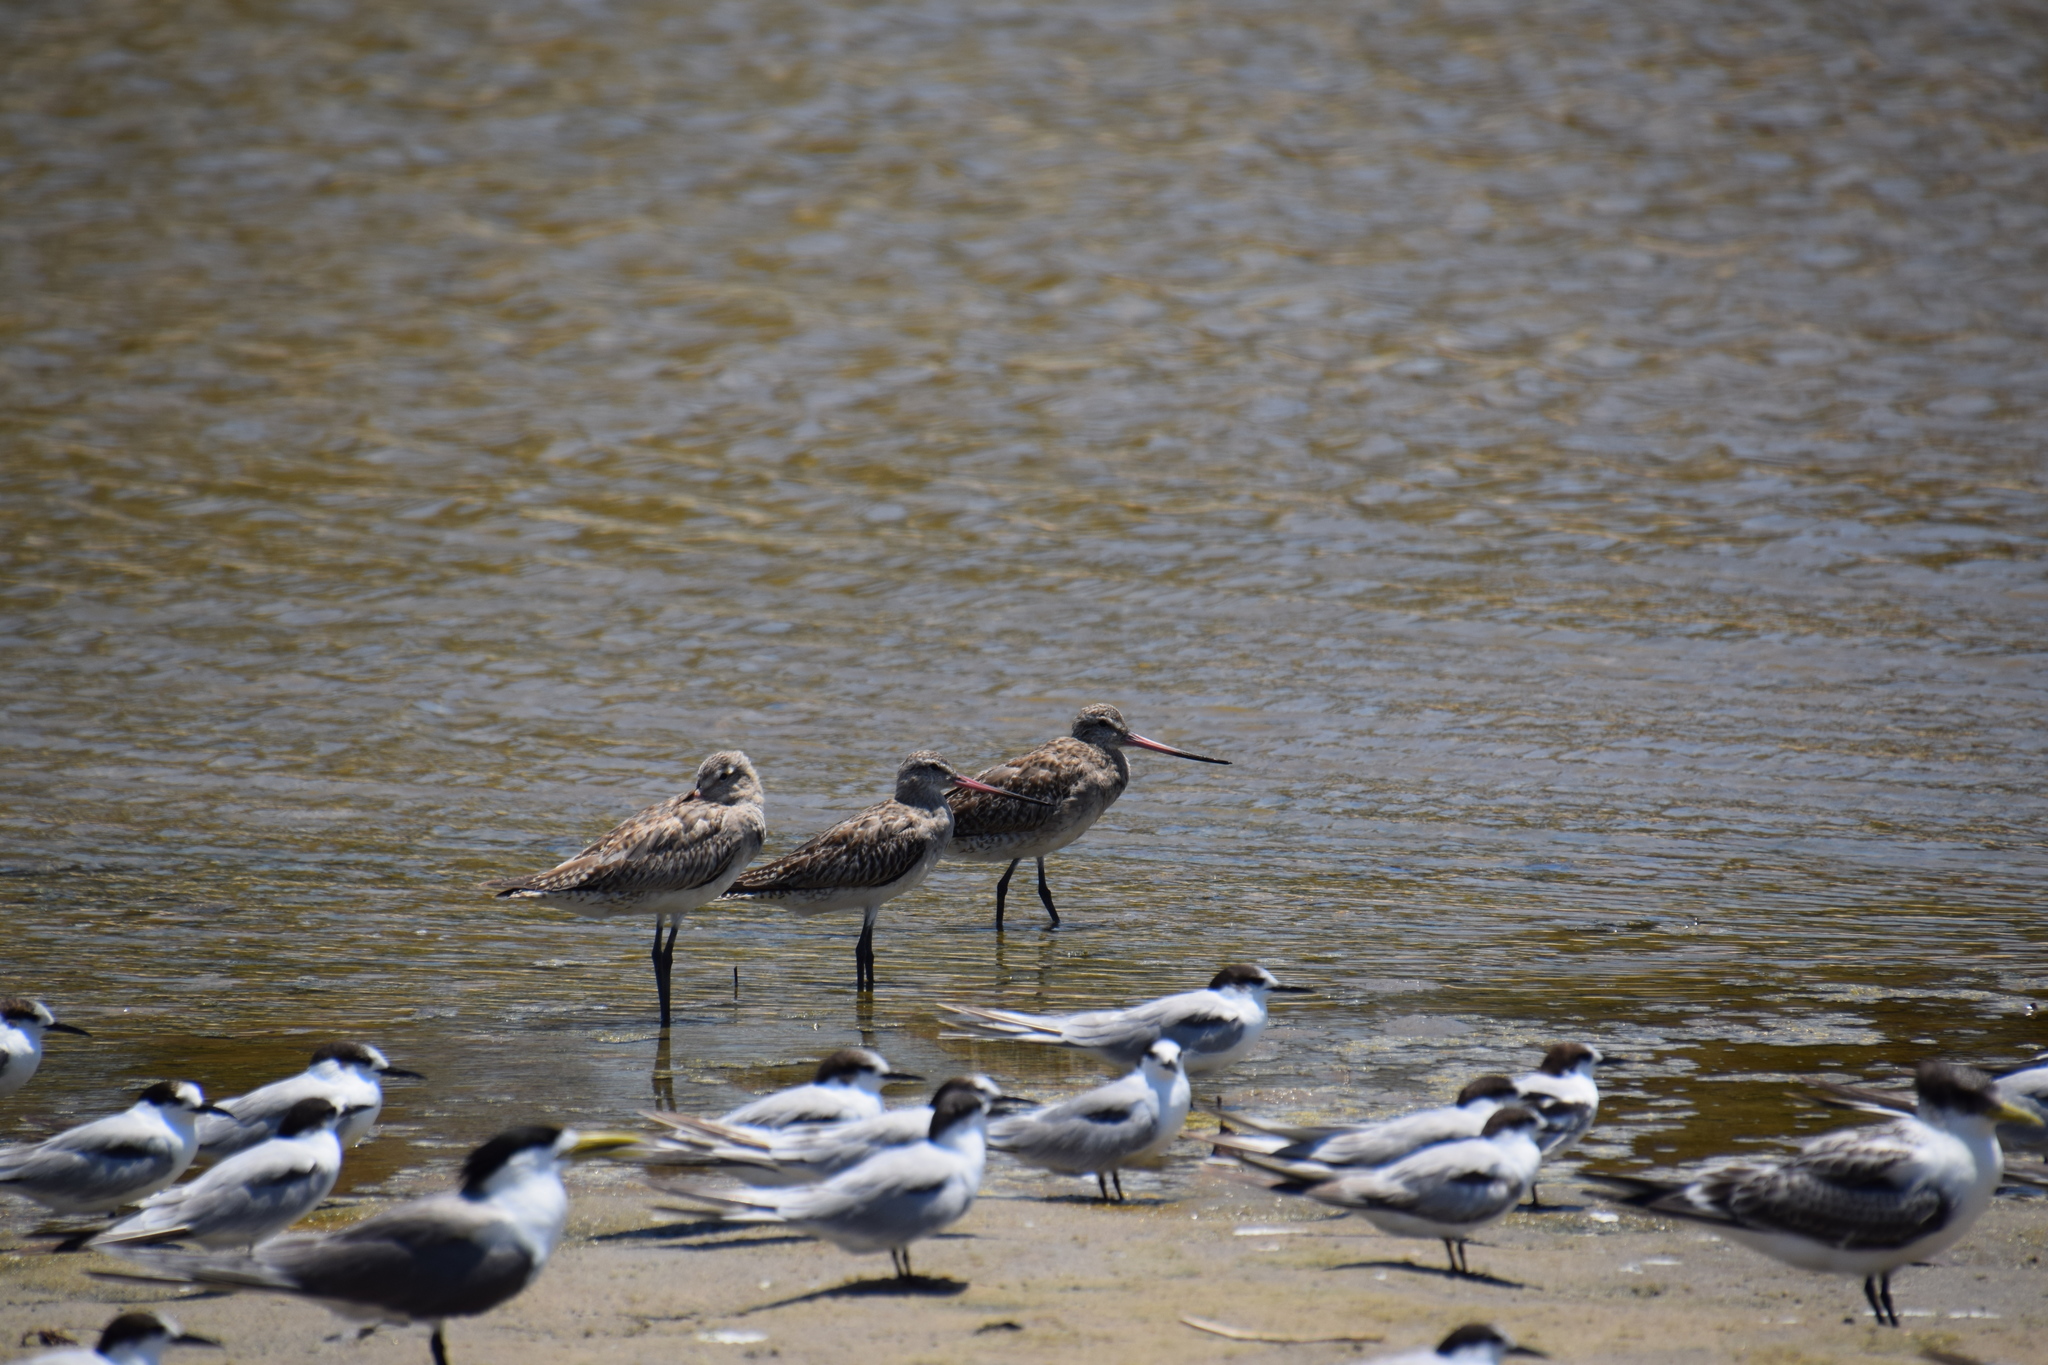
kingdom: Animalia
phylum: Chordata
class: Aves
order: Charadriiformes
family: Scolopacidae
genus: Limosa
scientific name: Limosa lapponica
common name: Bar-tailed godwit
